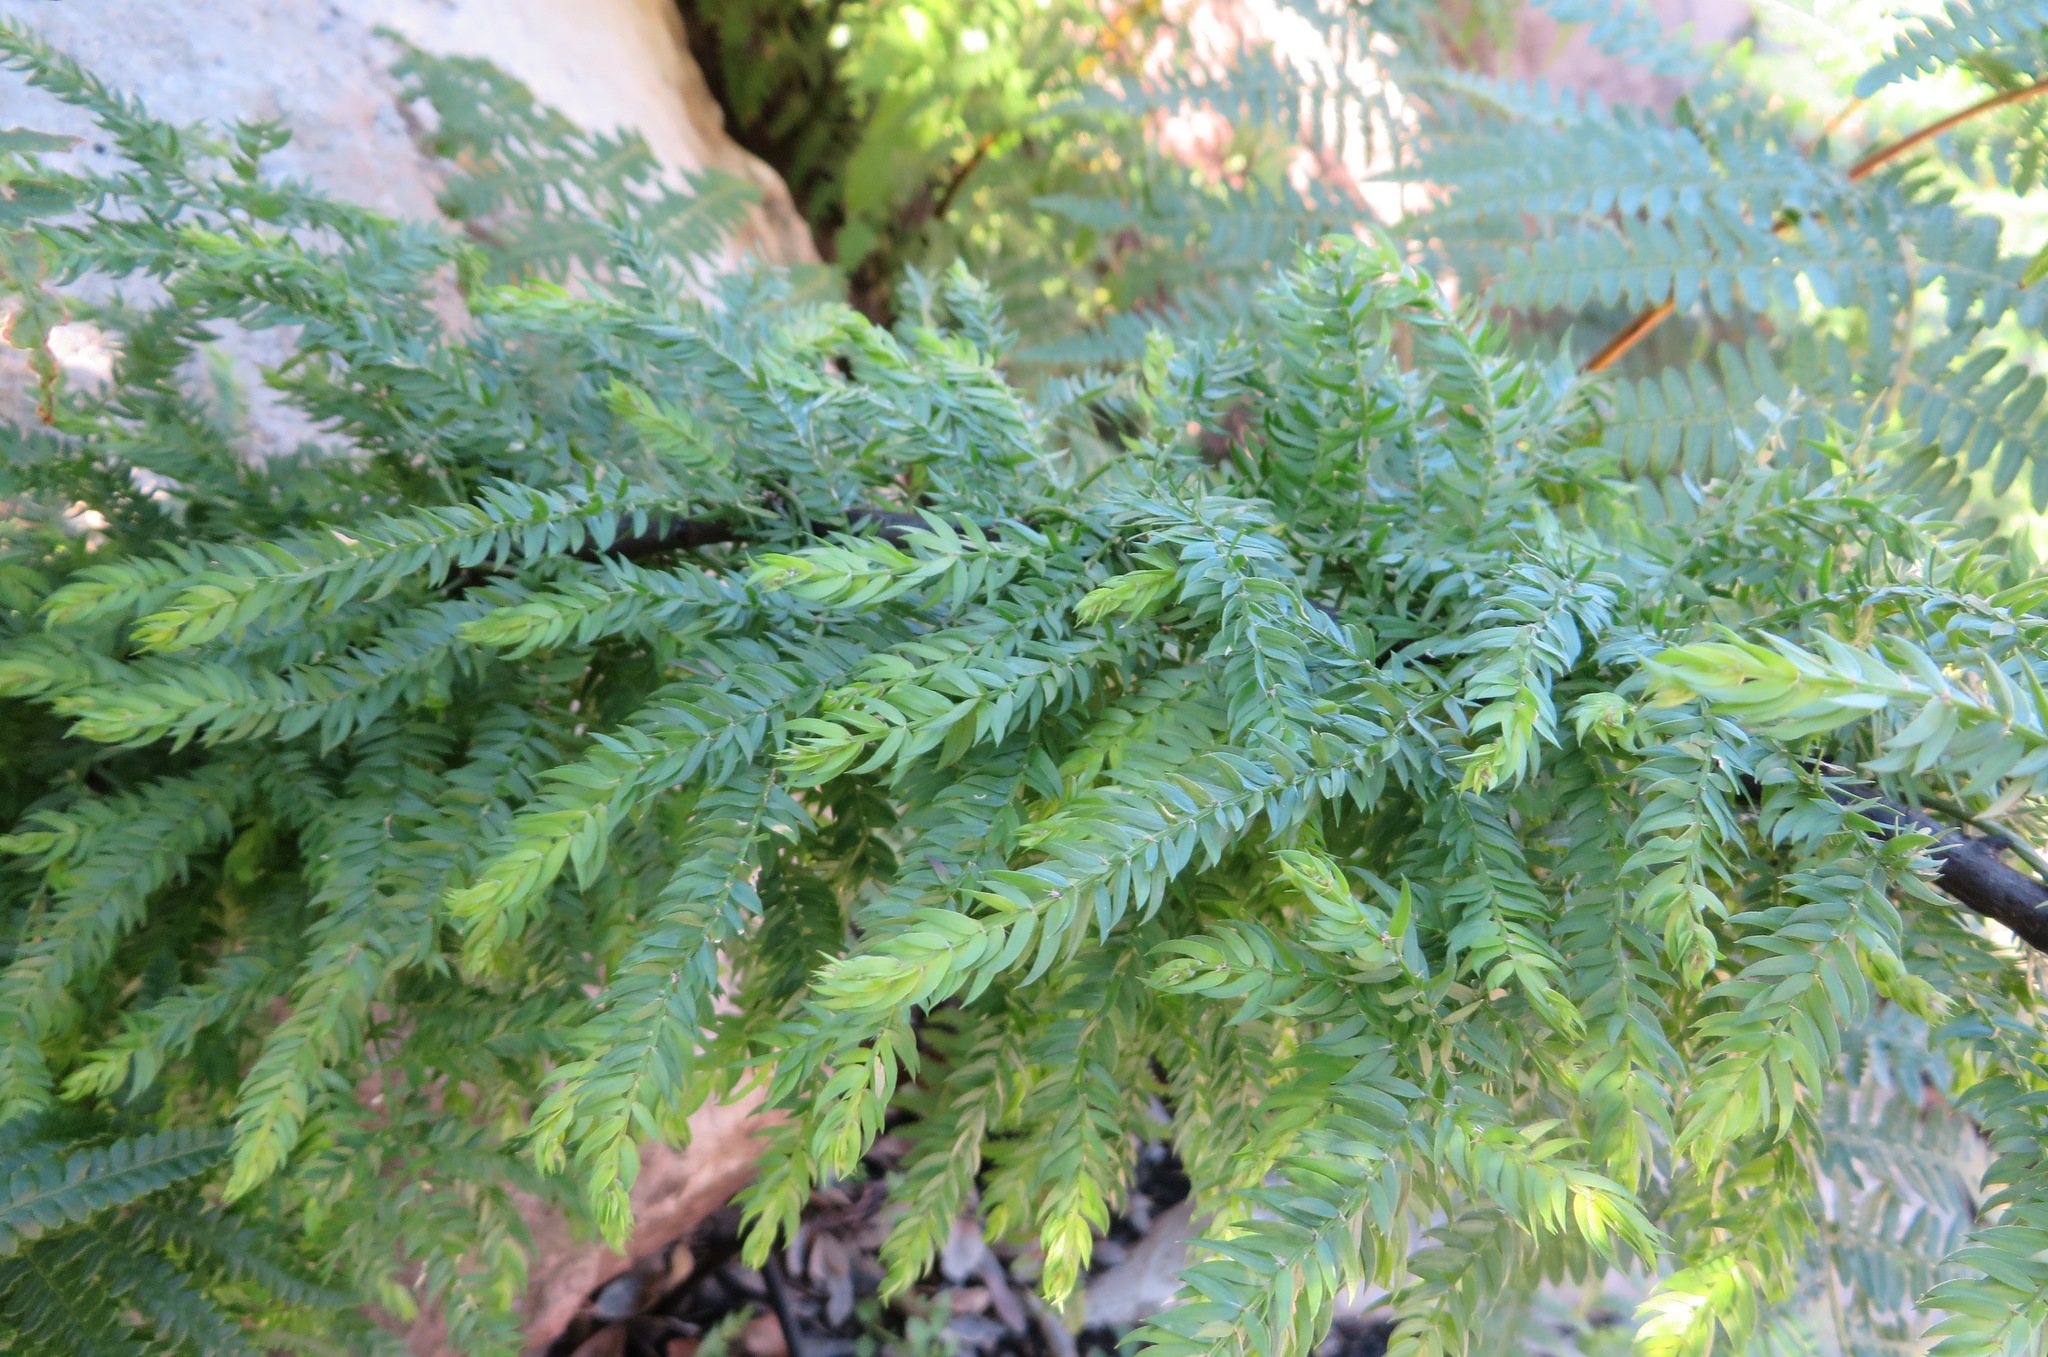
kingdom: Plantae
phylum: Tracheophyta
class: Liliopsida
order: Asparagales
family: Asparagaceae
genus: Asparagus
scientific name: Asparagus scandens
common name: Asparagus-fern
